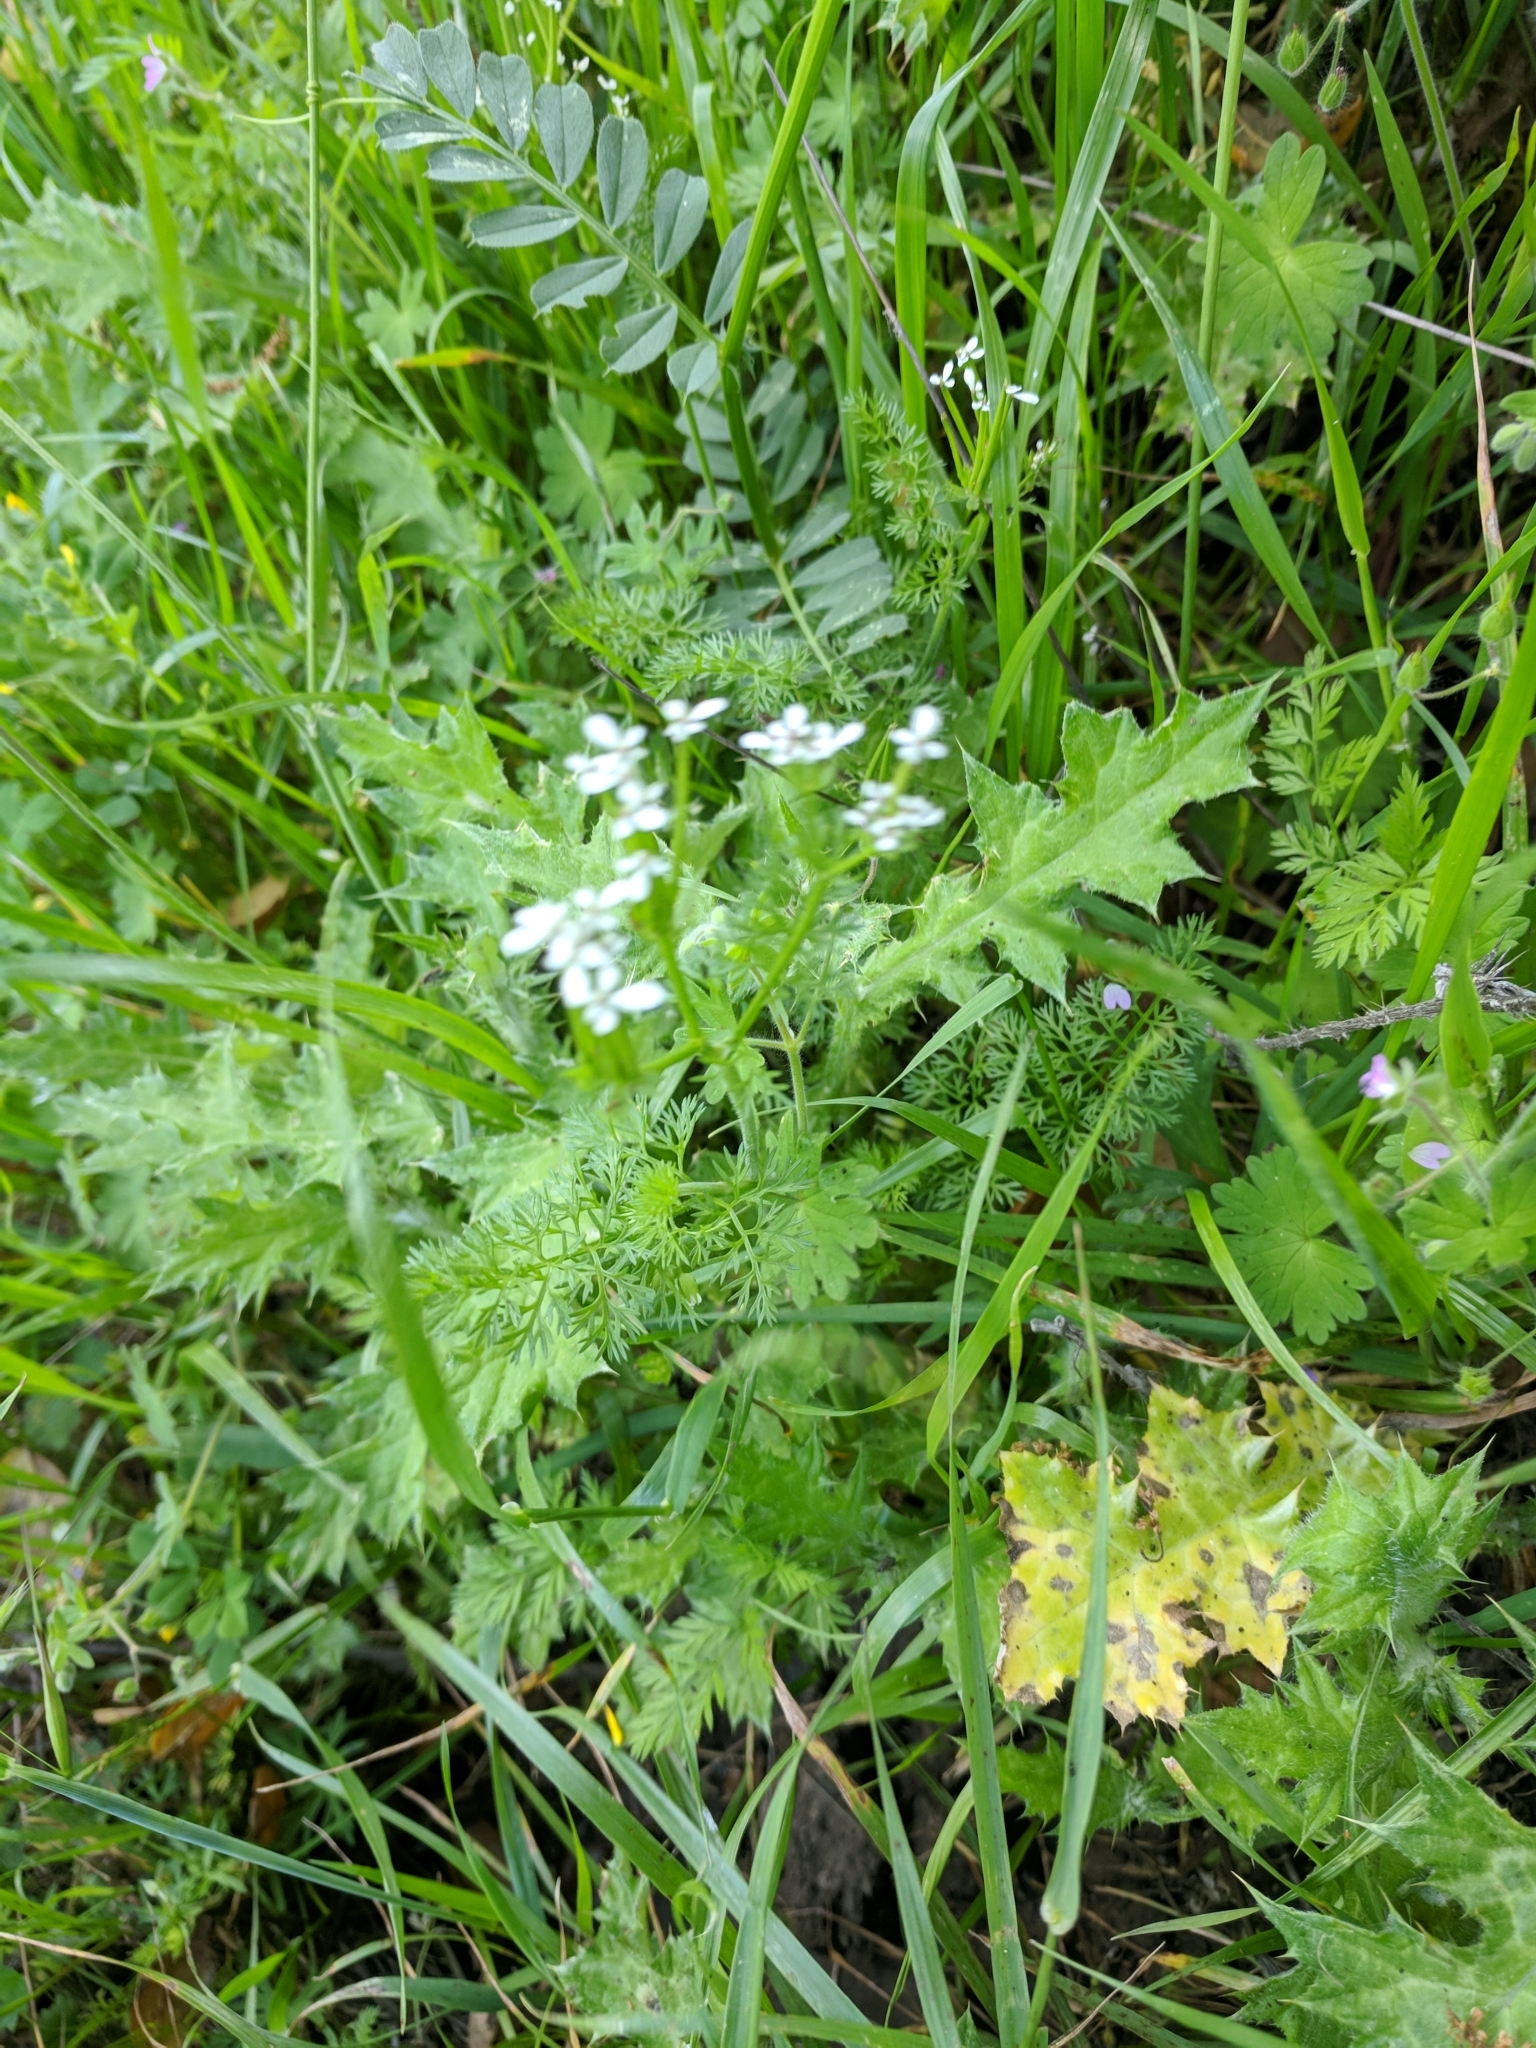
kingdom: Plantae
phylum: Tracheophyta
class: Magnoliopsida
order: Apiales
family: Apiaceae
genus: Scandix
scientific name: Scandix pecten-veneris
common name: Shepherd's-needle
